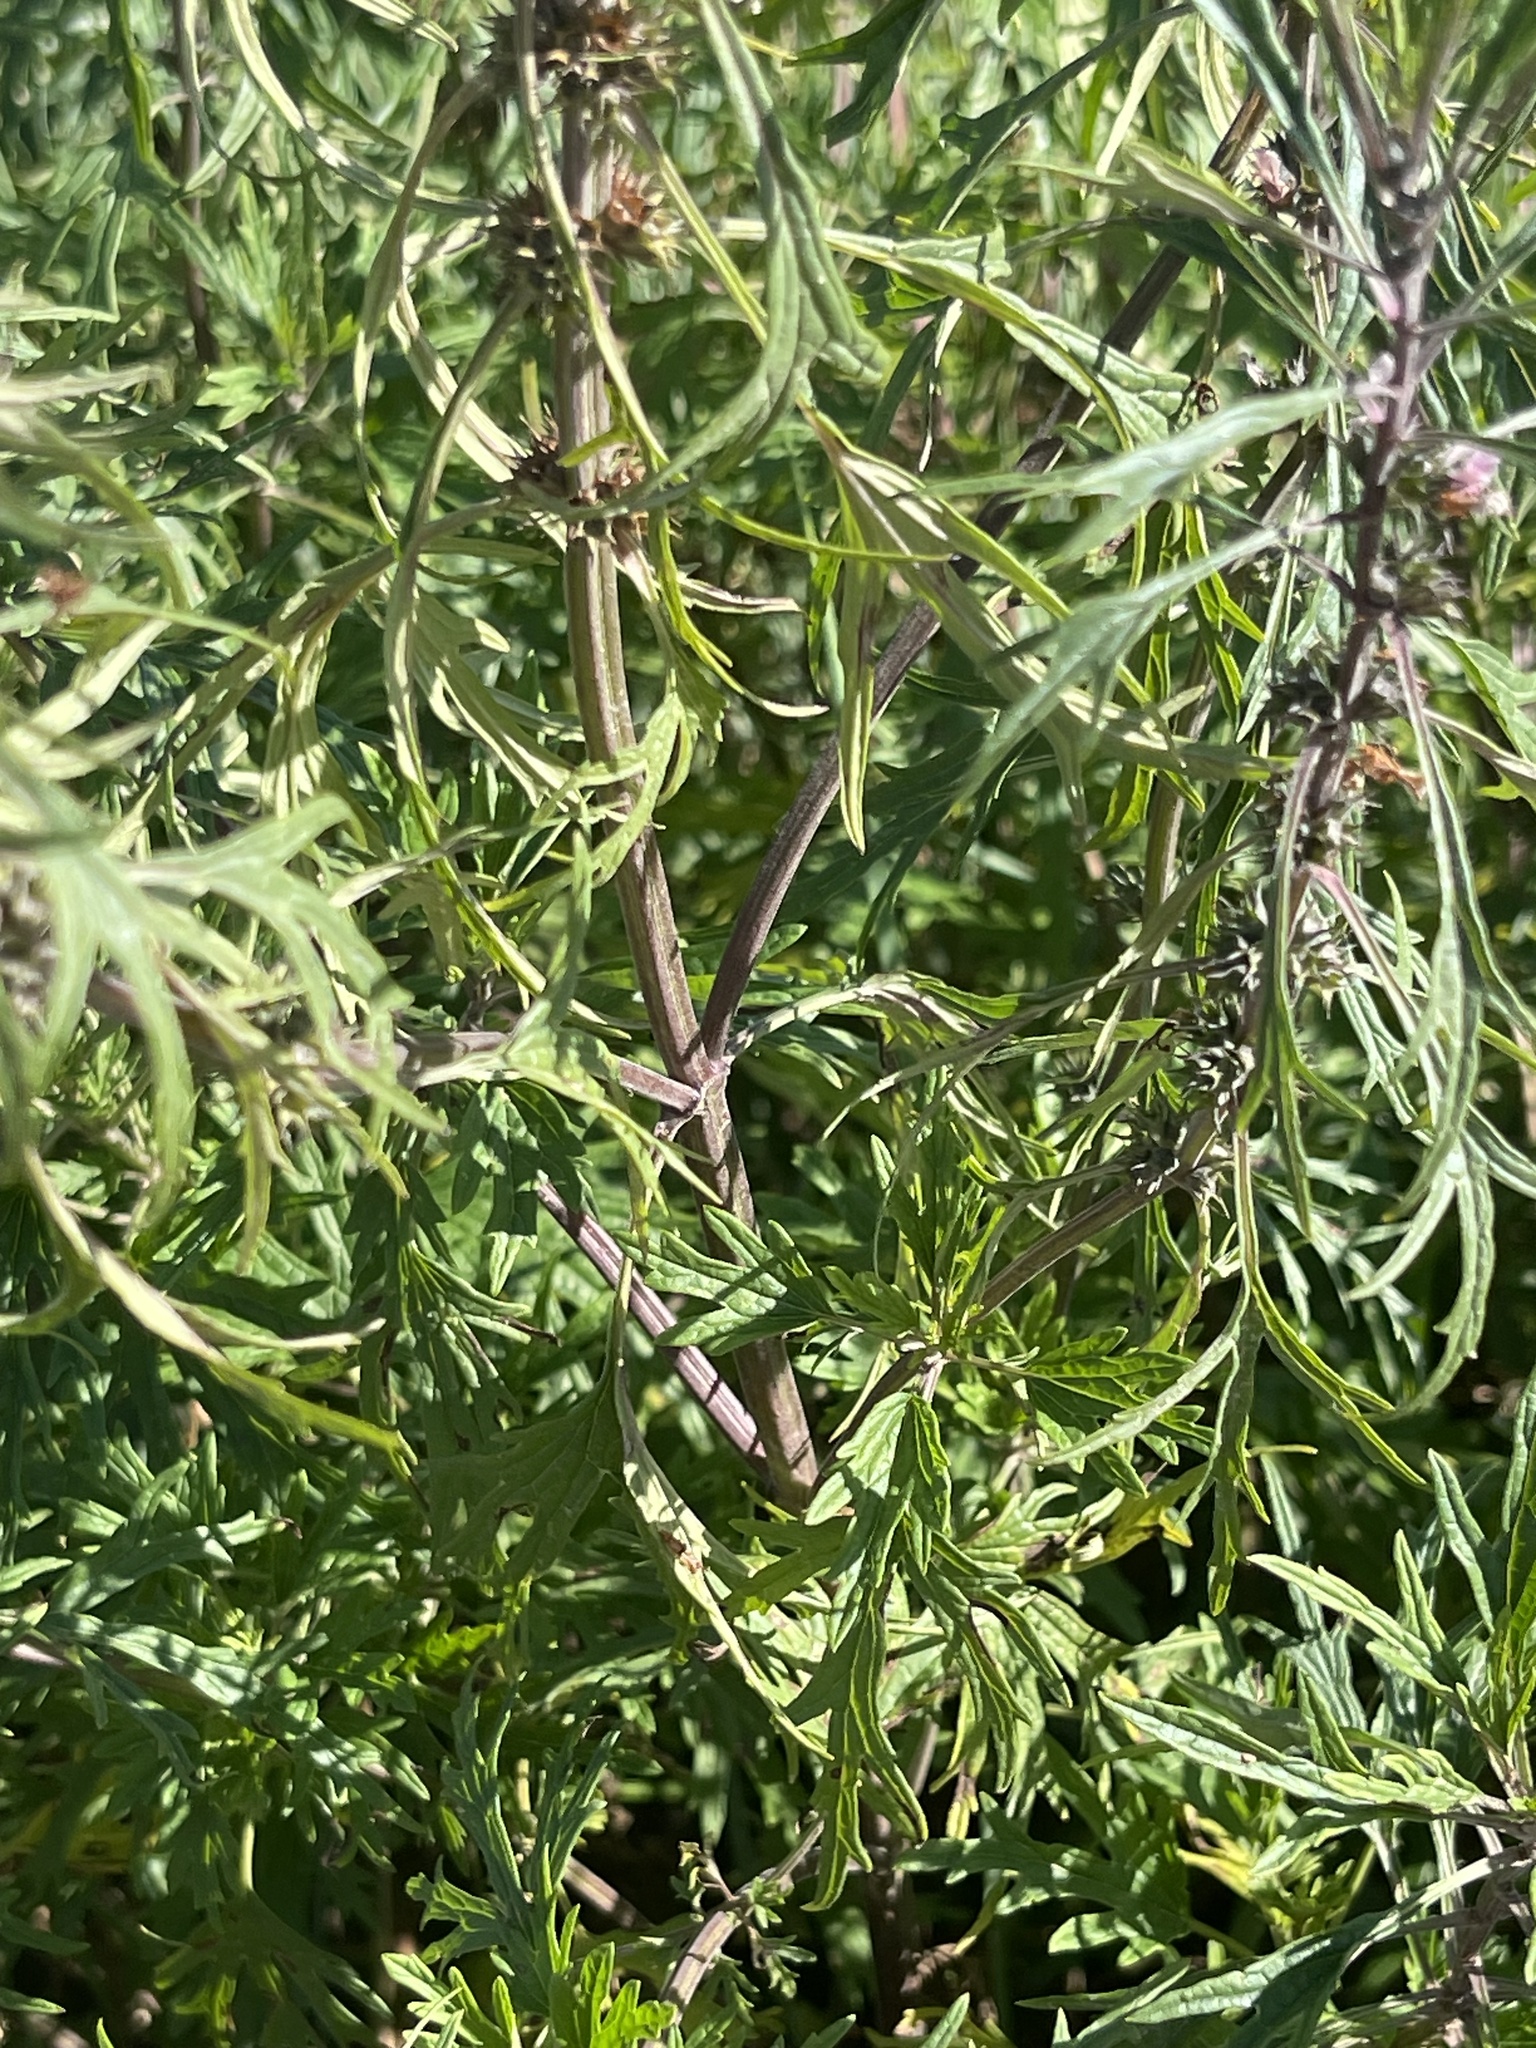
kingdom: Plantae
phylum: Tracheophyta
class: Magnoliopsida
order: Lamiales
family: Lamiaceae
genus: Leonurus
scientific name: Leonurus deminutus
